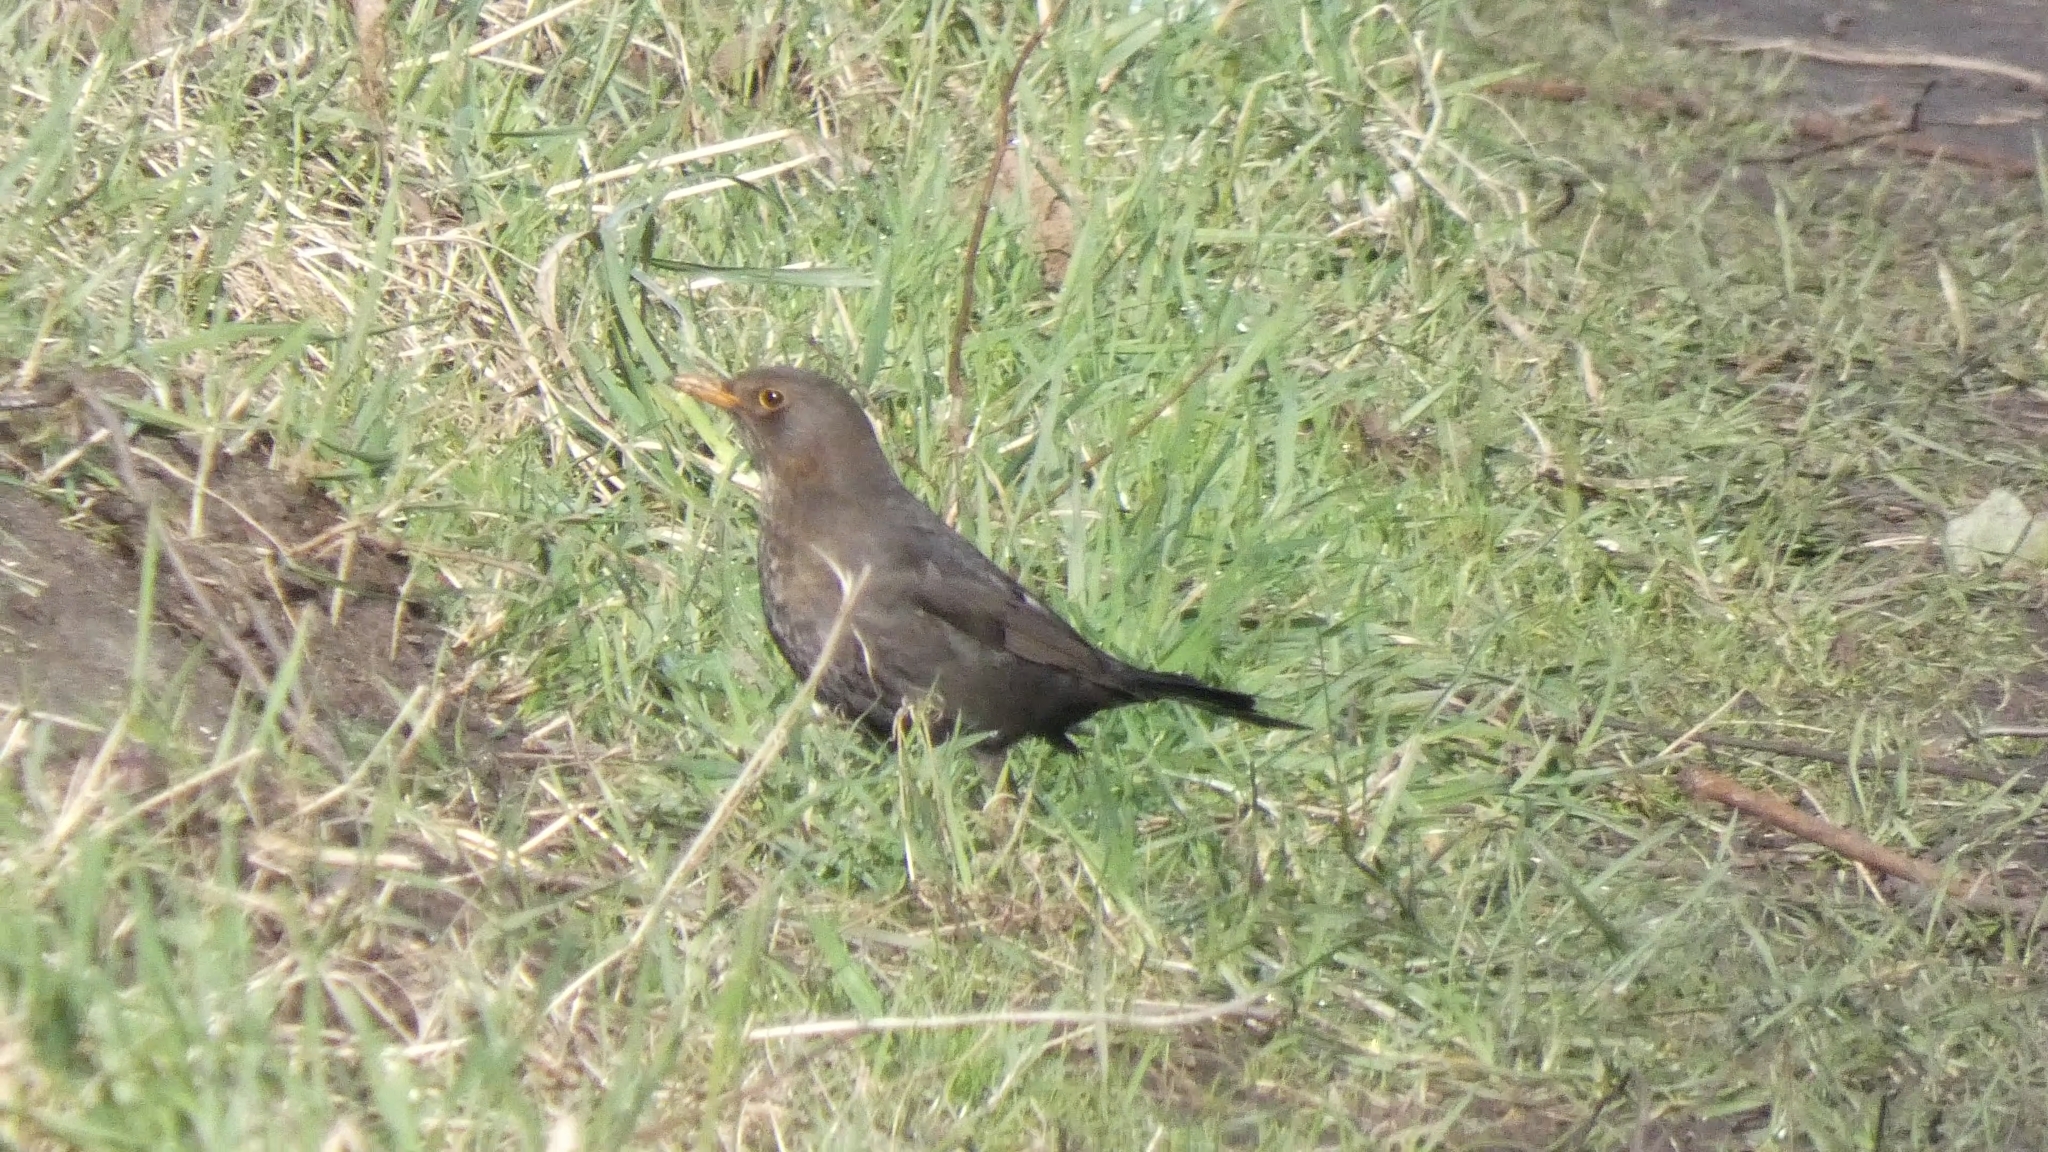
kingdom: Animalia
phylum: Chordata
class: Aves
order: Passeriformes
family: Turdidae
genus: Turdus
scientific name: Turdus merula
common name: Common blackbird
